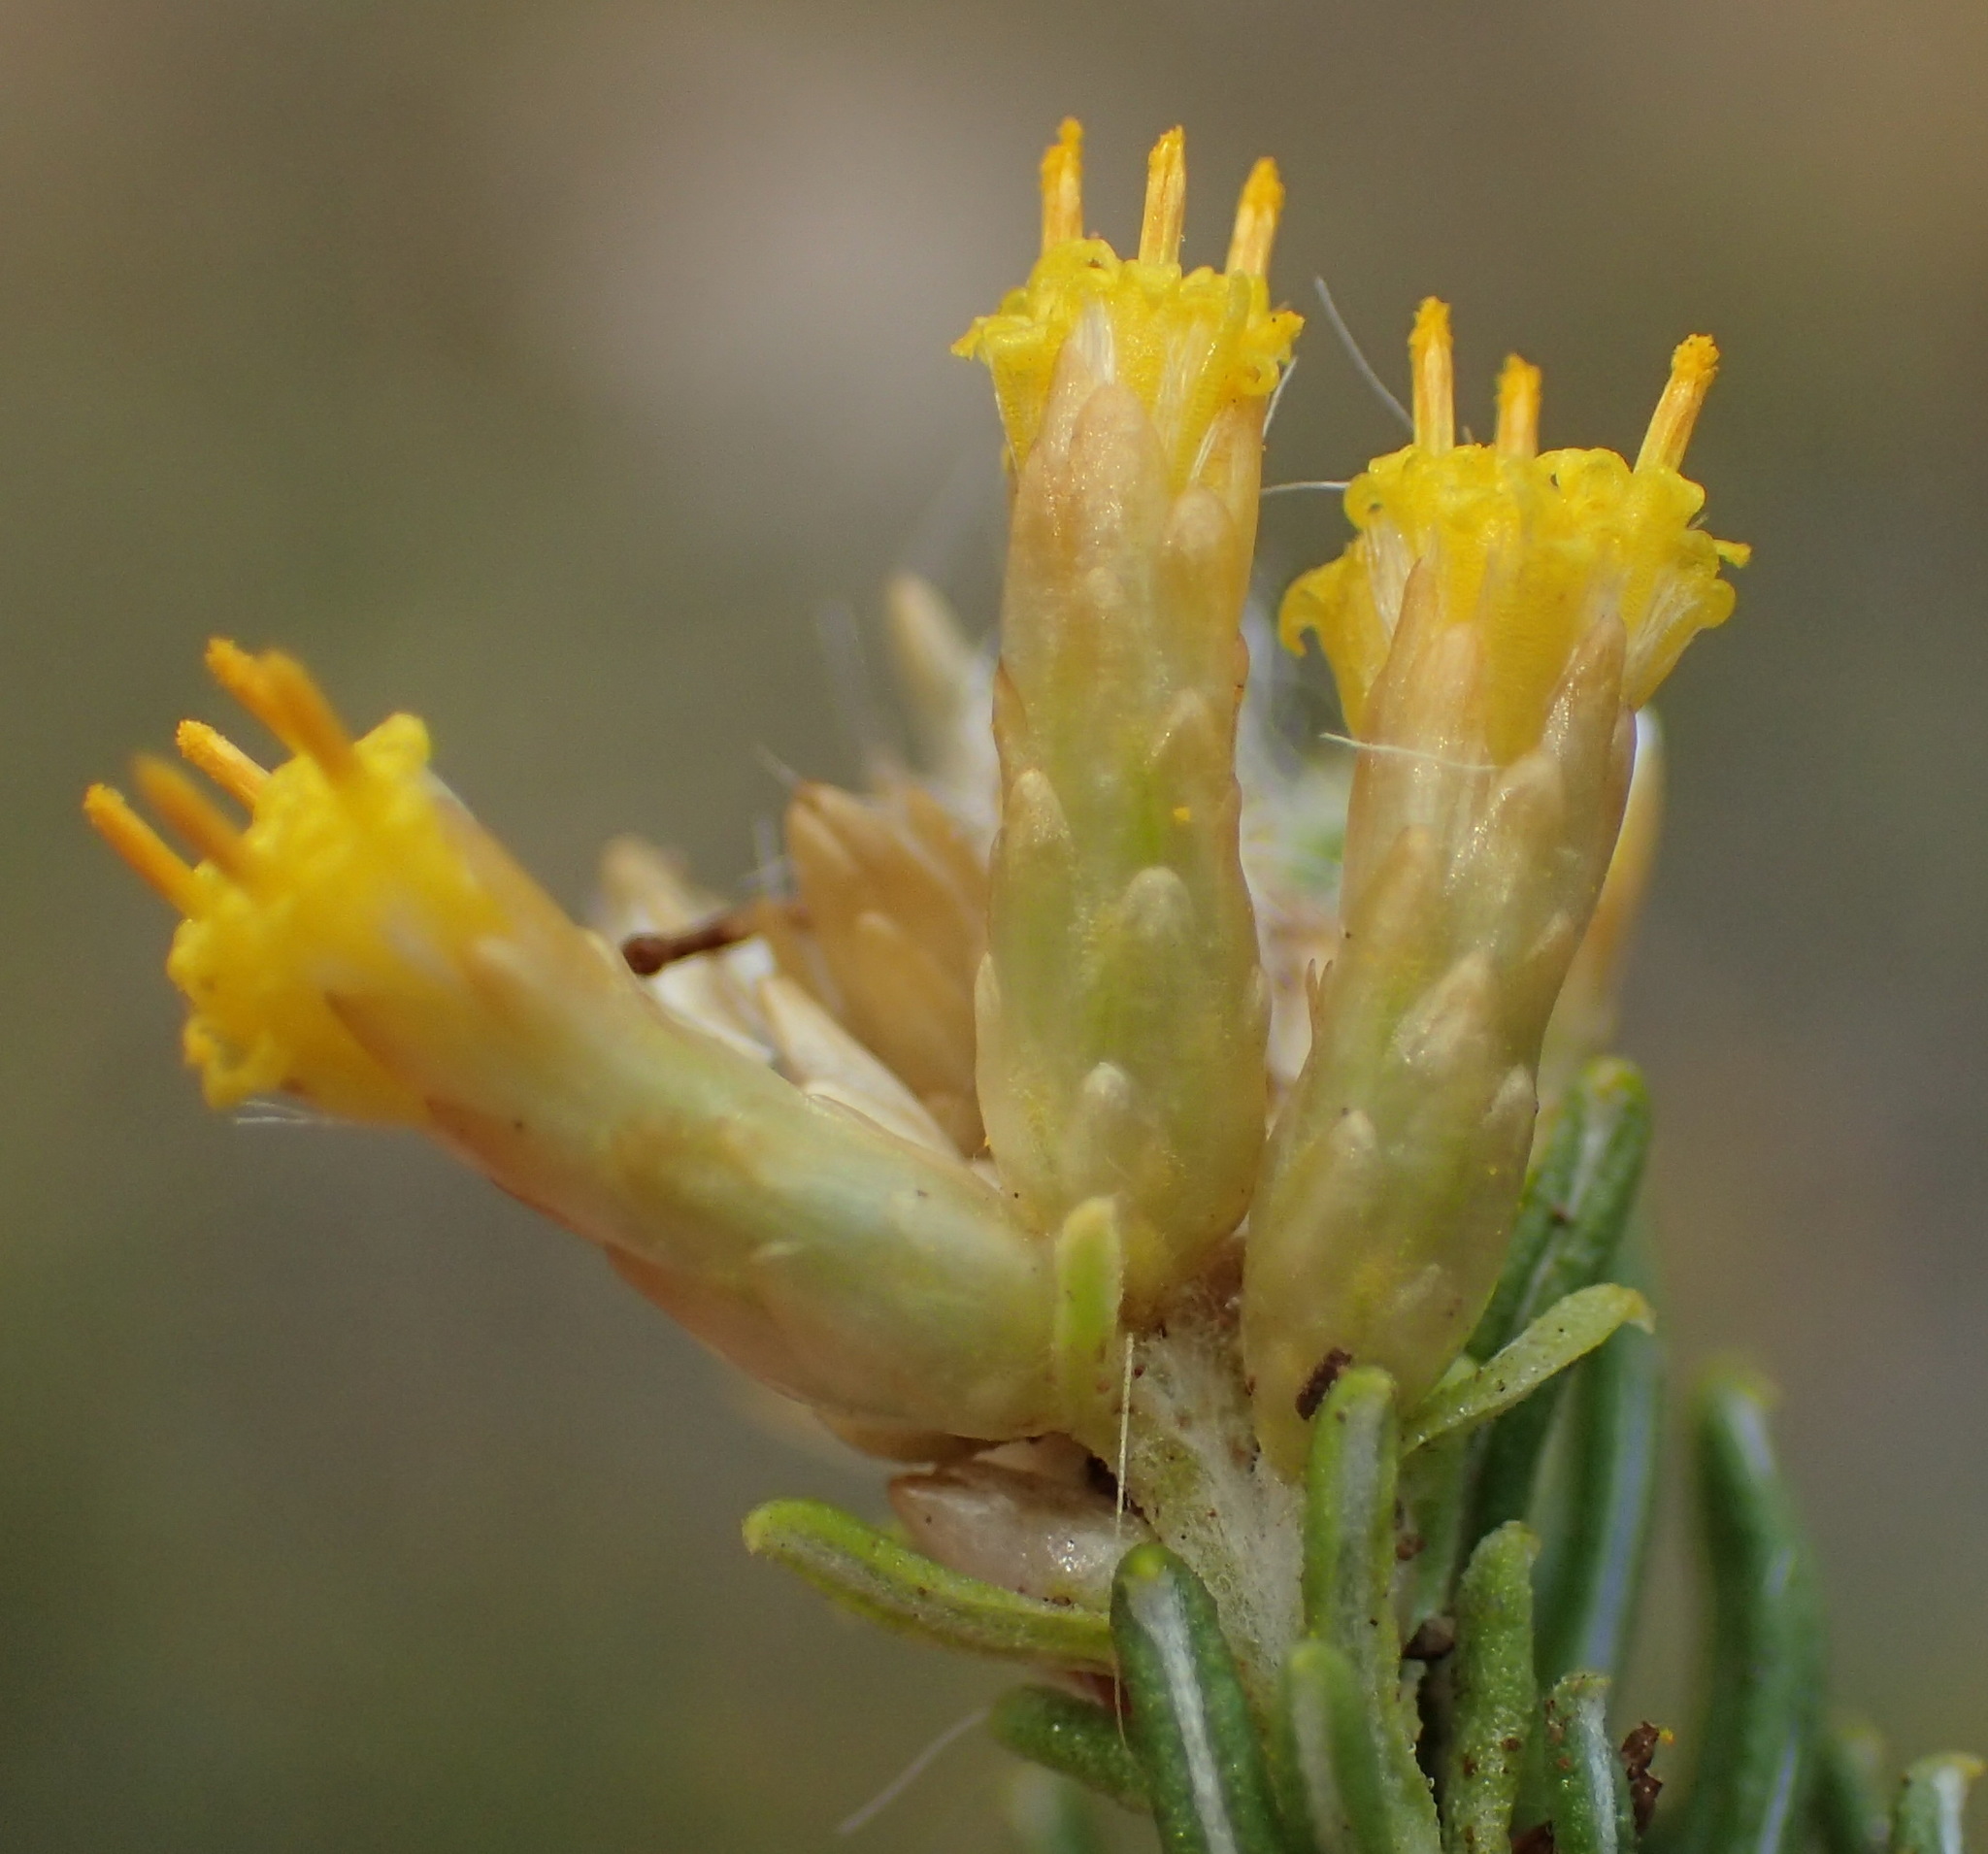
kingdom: Plantae
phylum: Tracheophyta
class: Magnoliopsida
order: Asterales
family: Asteraceae
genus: Helichrysum
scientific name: Helichrysum hamulosum
